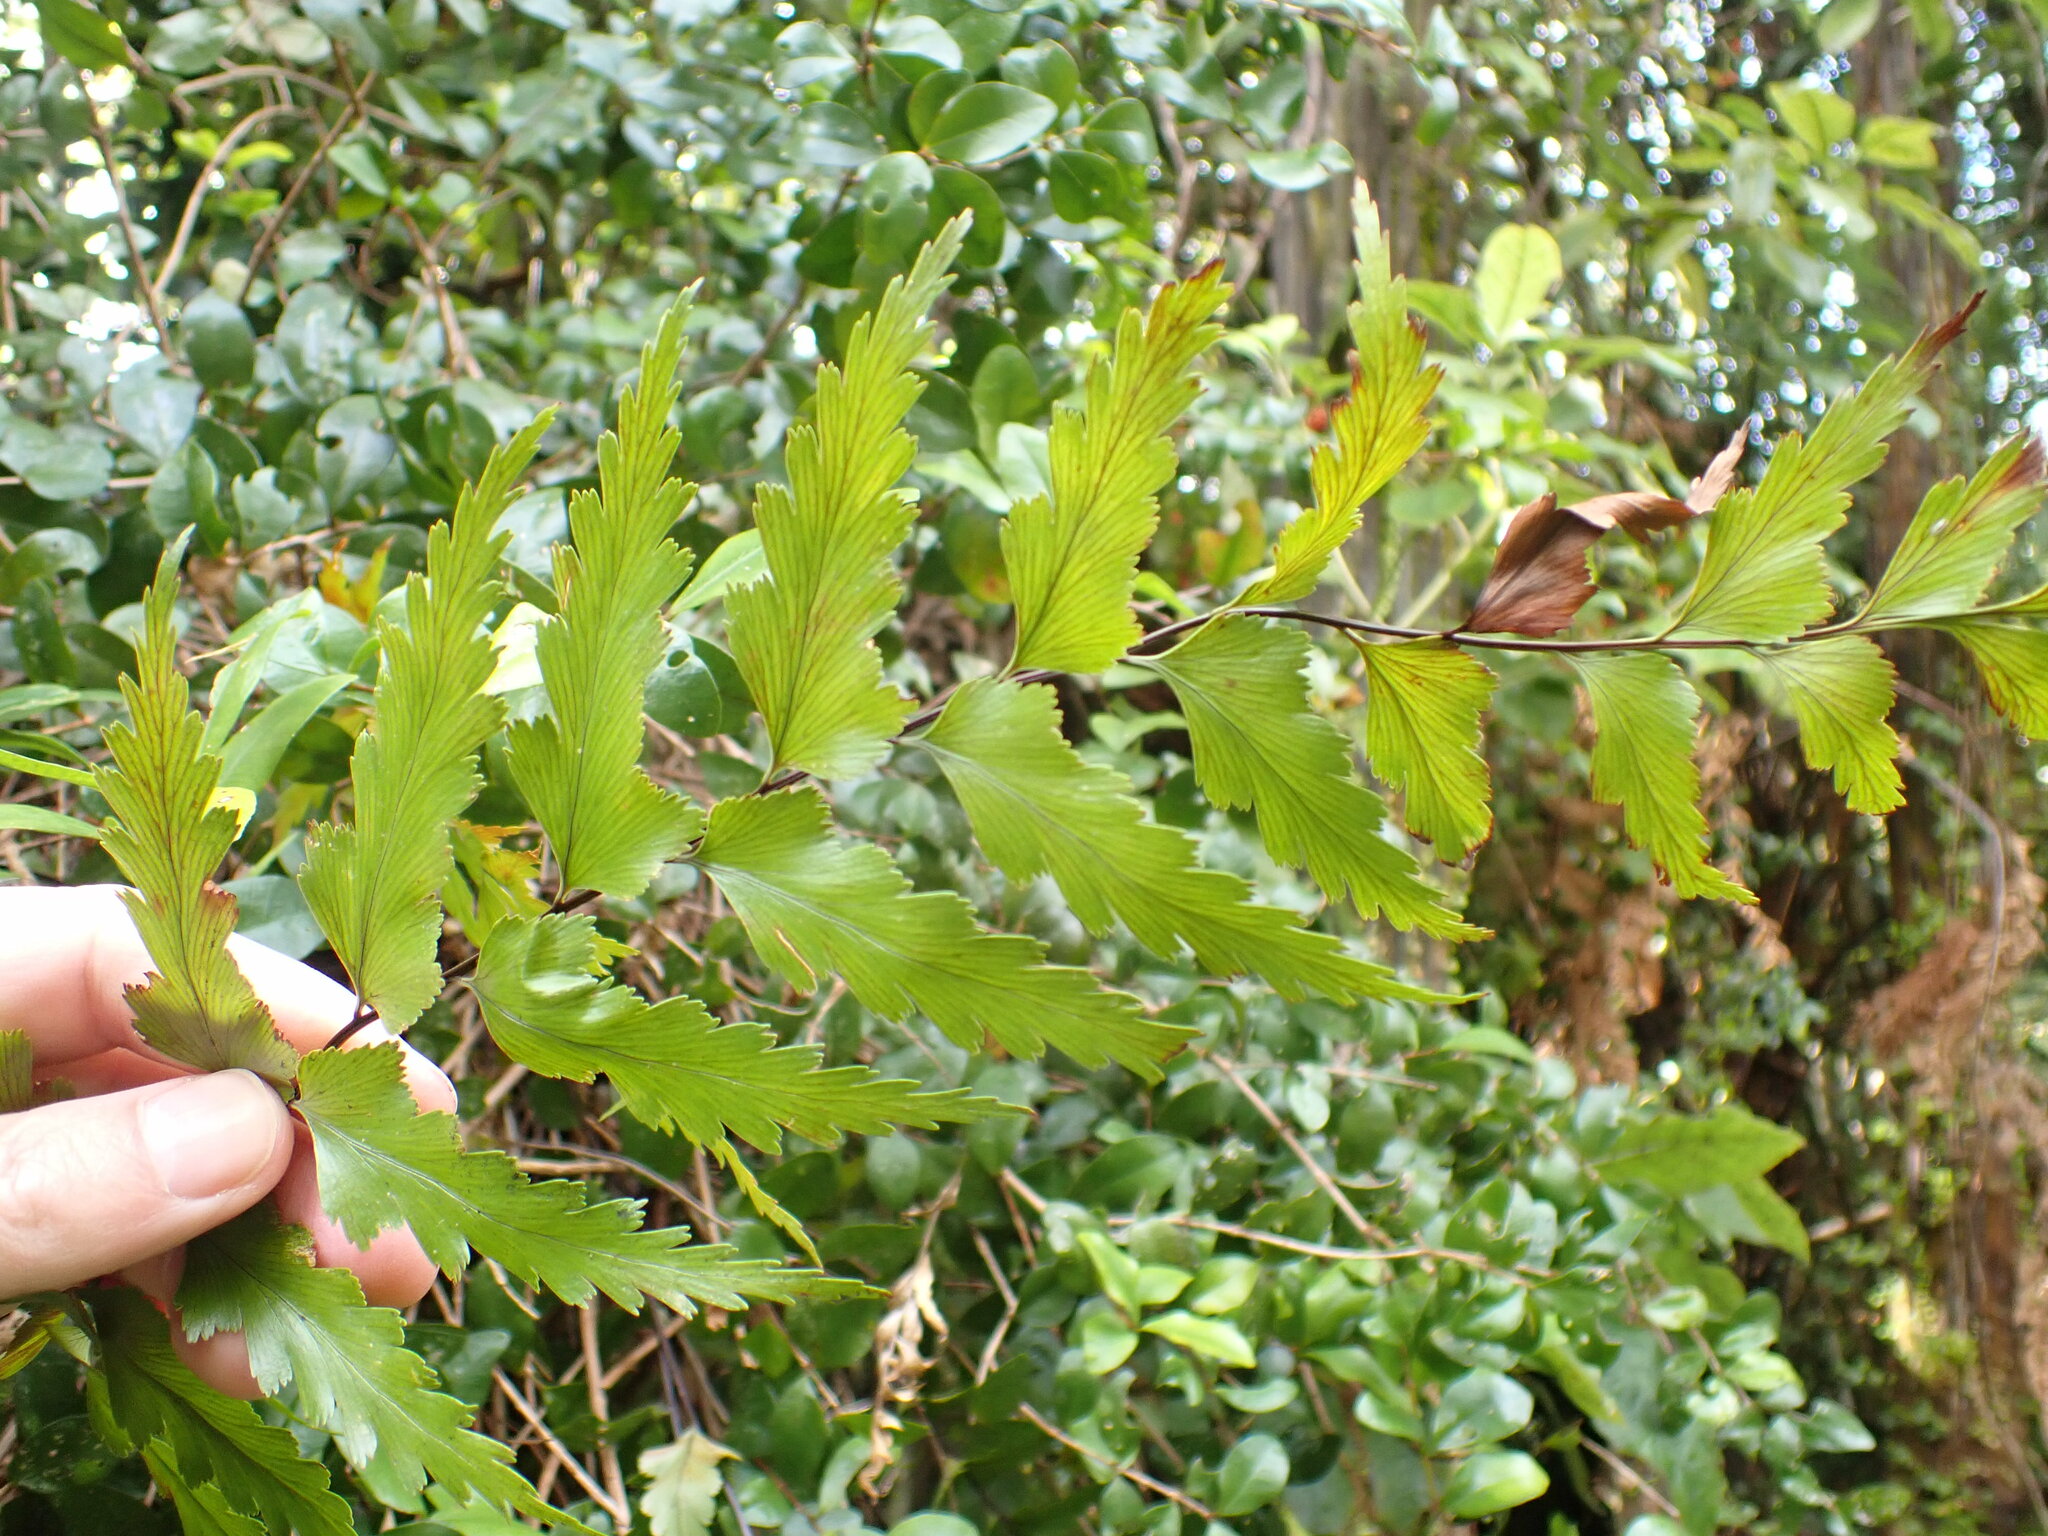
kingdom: Plantae
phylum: Tracheophyta
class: Polypodiopsida
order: Polypodiales
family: Aspleniaceae
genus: Asplenium
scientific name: Asplenium polyodon
